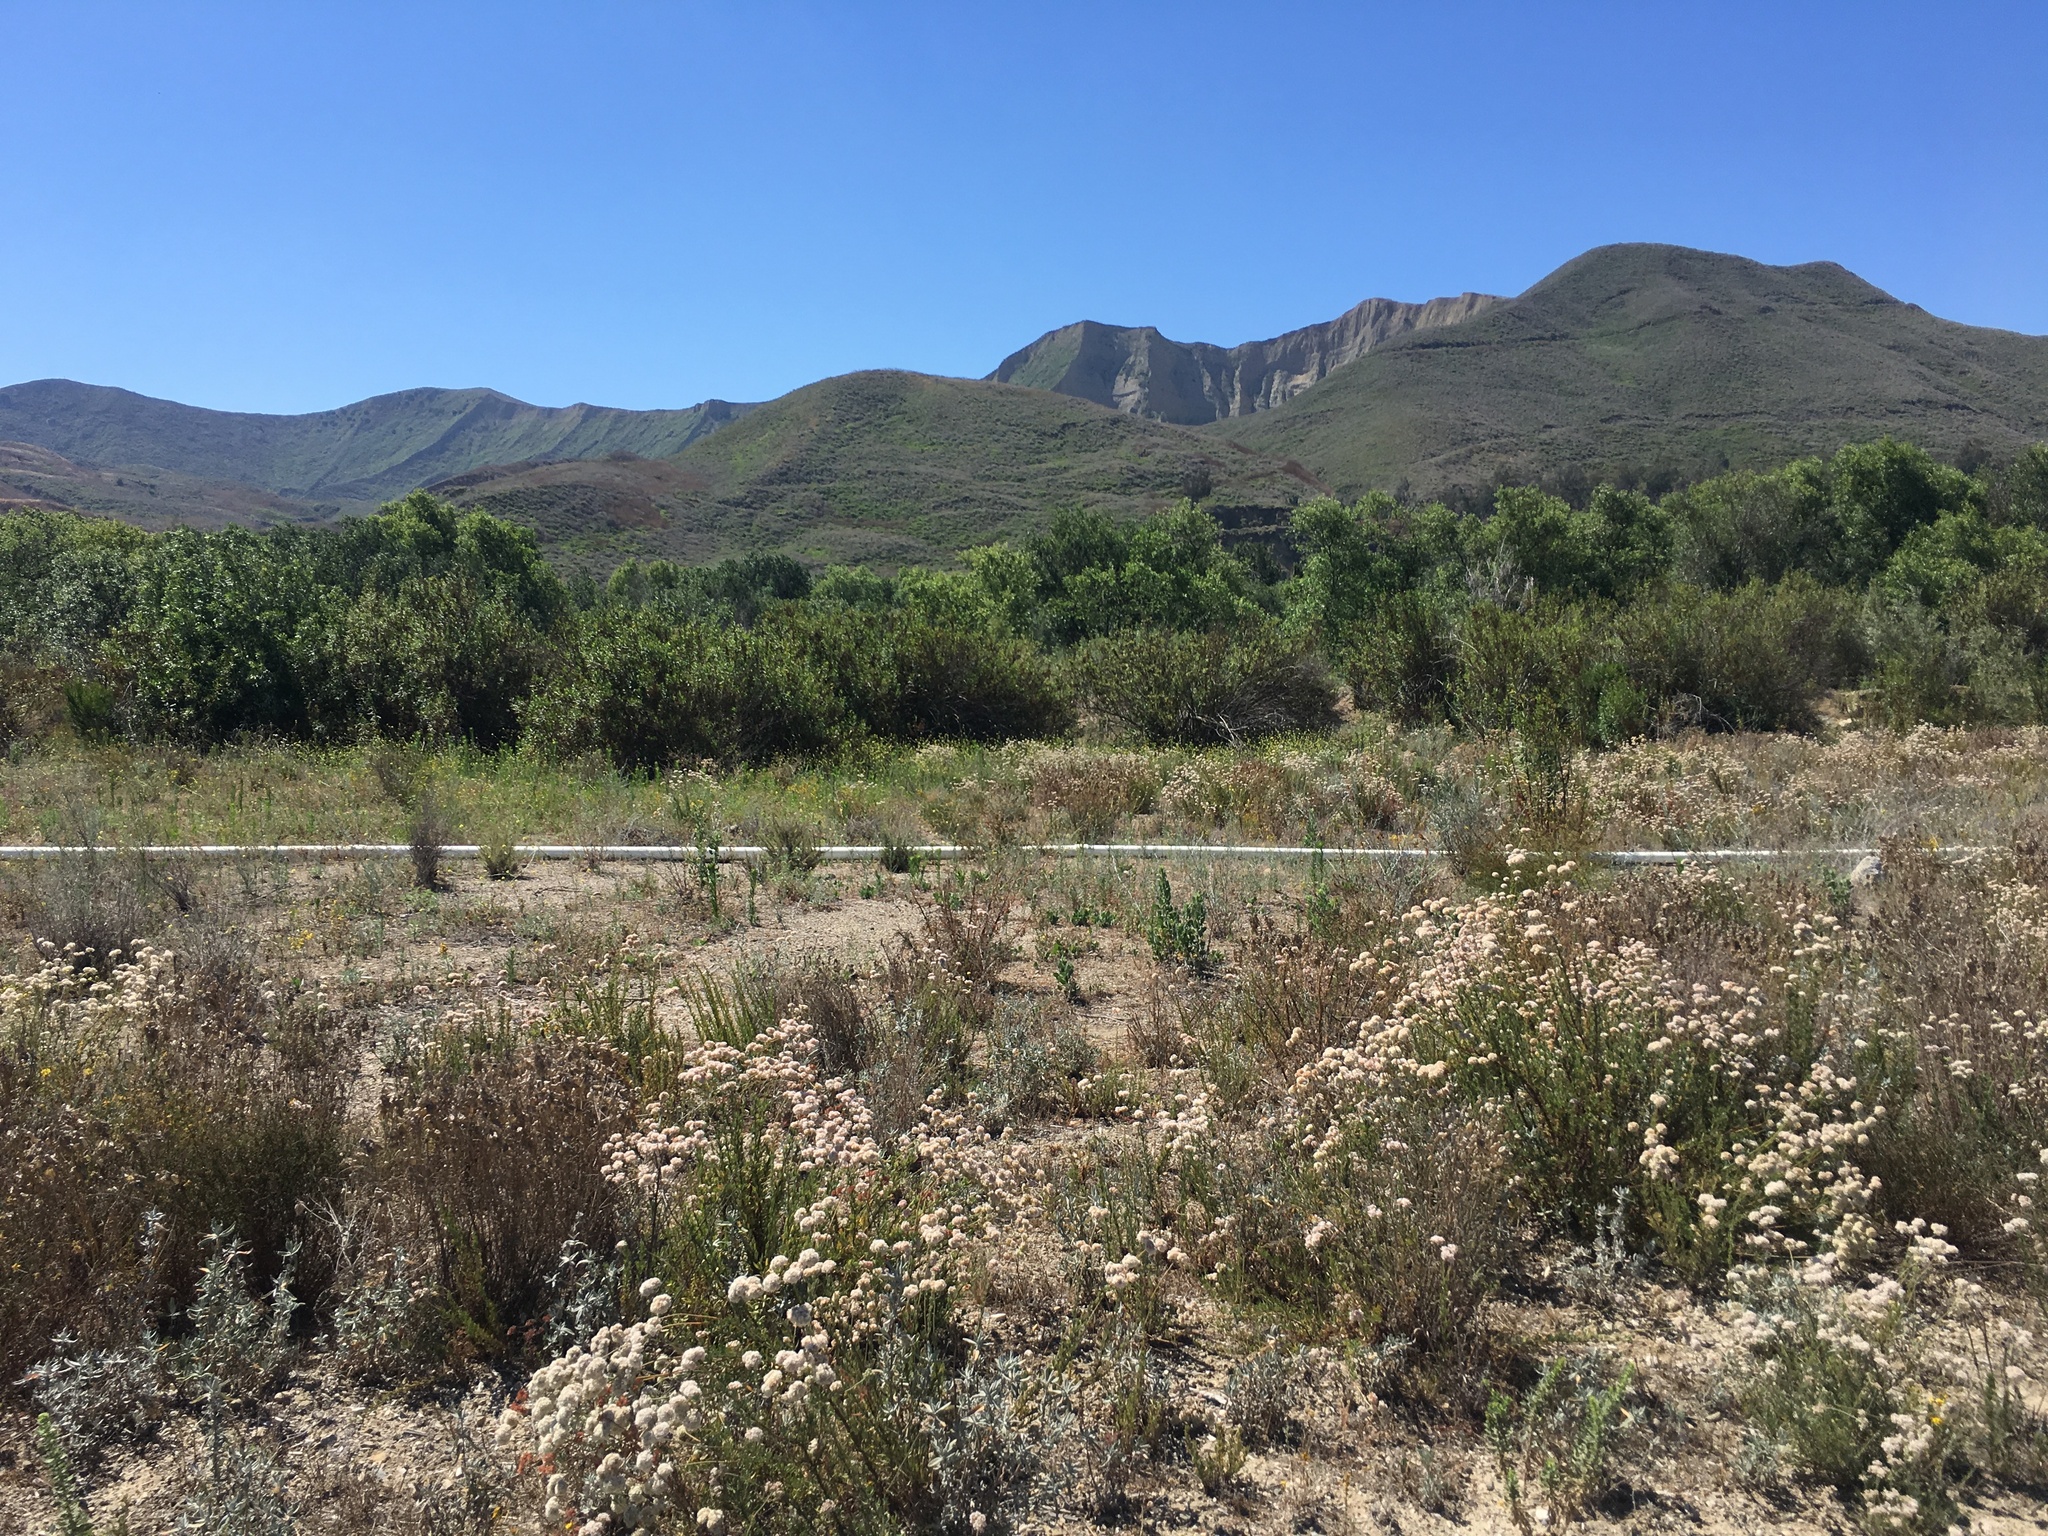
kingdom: Plantae
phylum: Tracheophyta
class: Magnoliopsida
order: Caryophyllales
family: Polygonaceae
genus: Eriogonum
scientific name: Eriogonum fasciculatum
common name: California wild buckwheat
